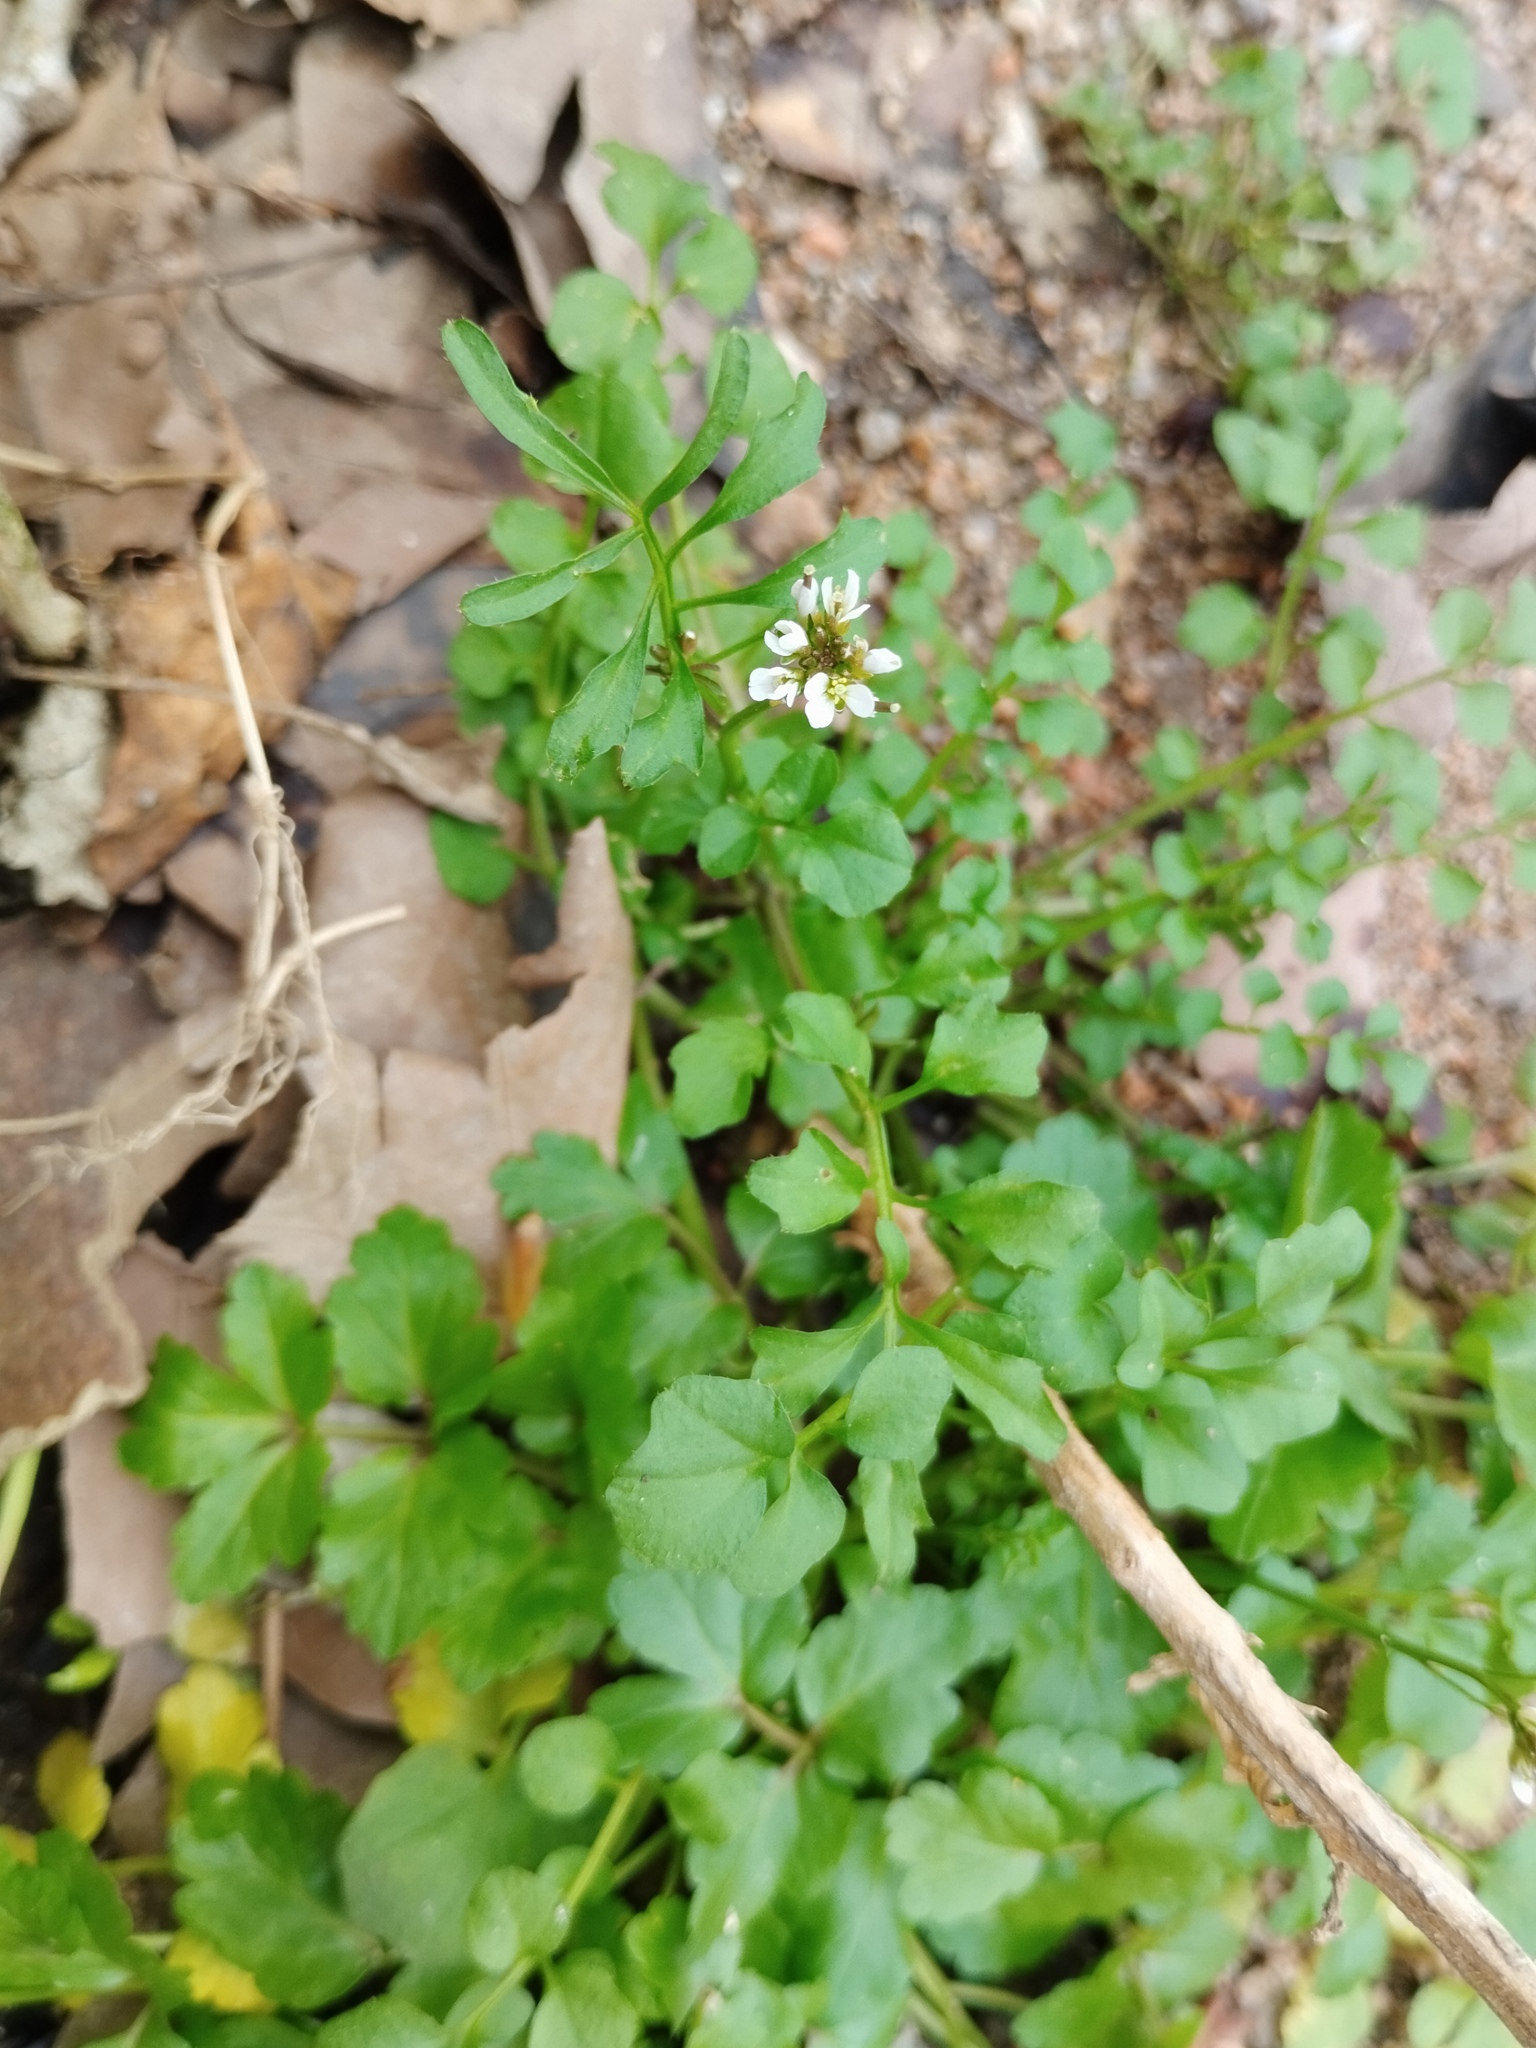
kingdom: Plantae
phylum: Tracheophyta
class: Magnoliopsida
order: Brassicales
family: Brassicaceae
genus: Cardamine
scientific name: Cardamine hirsuta
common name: Hairy bittercress
